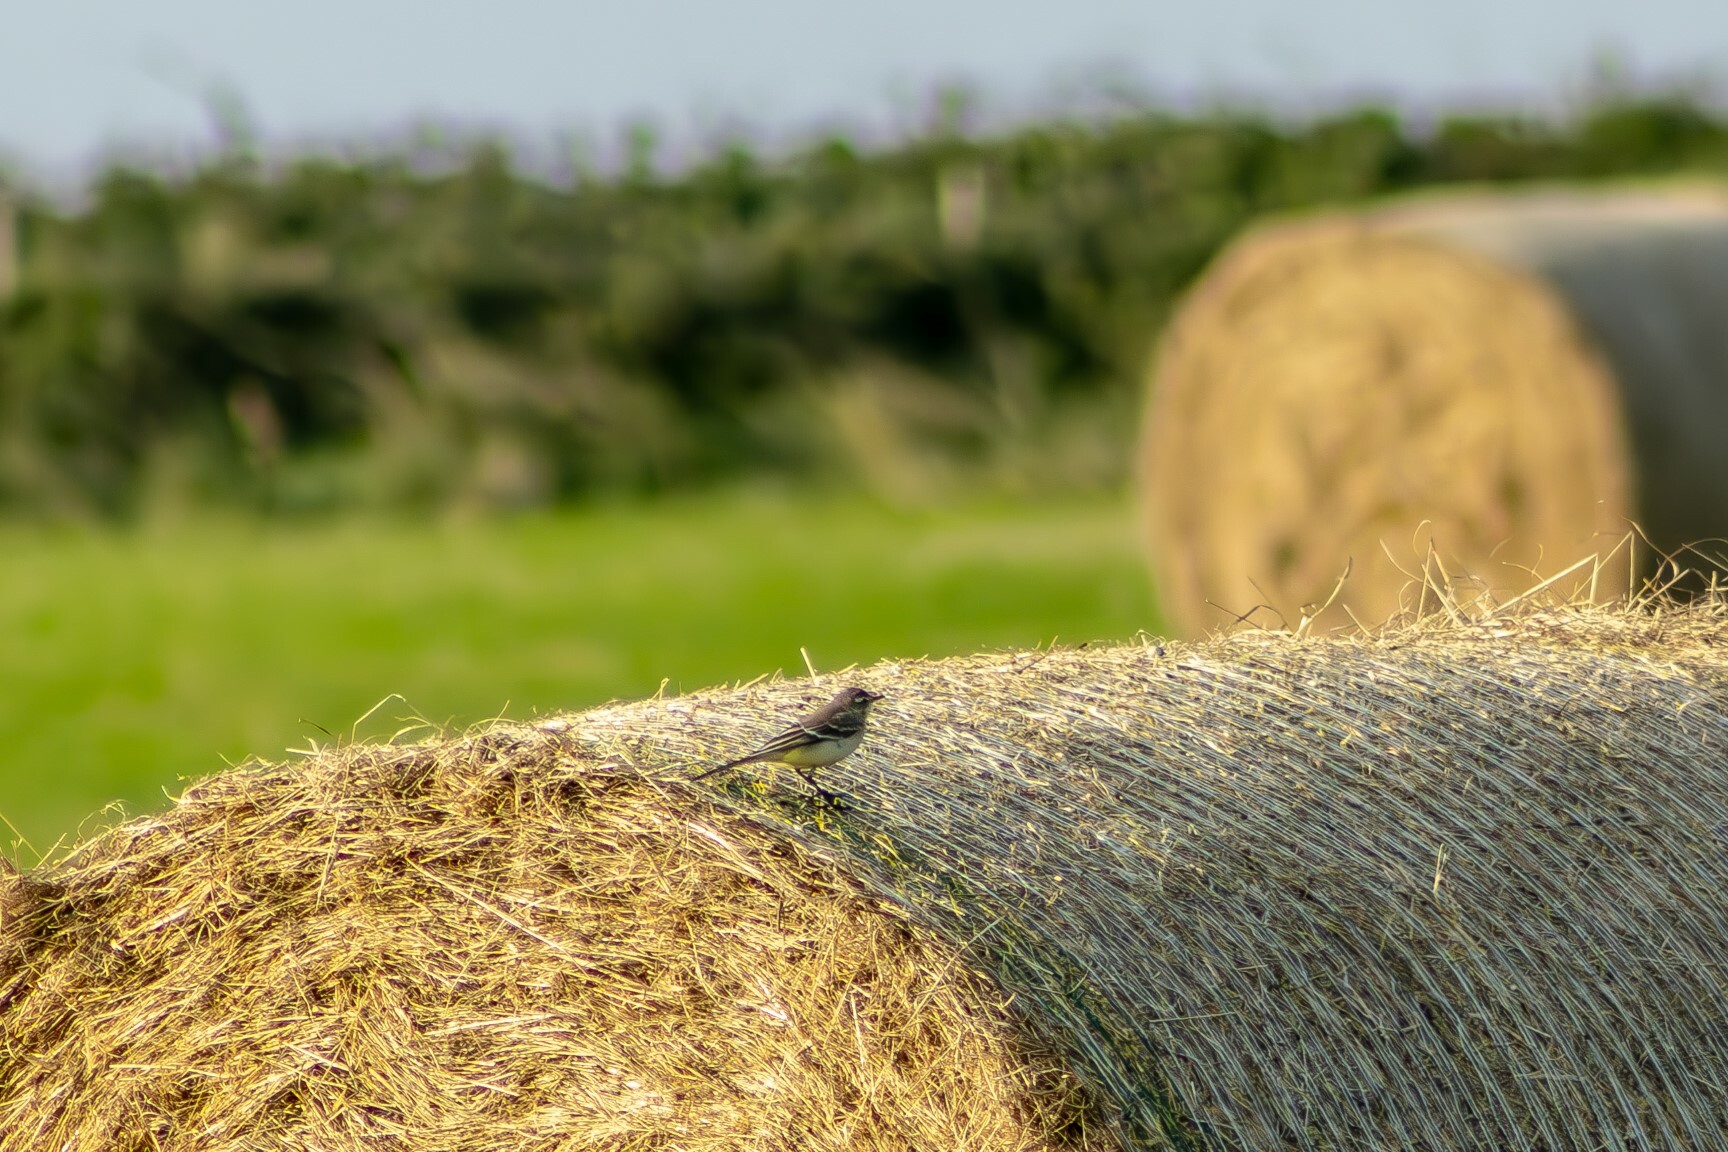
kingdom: Animalia
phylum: Chordata
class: Aves
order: Passeriformes
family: Motacillidae
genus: Motacilla
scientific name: Motacilla flava
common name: Western yellow wagtail
